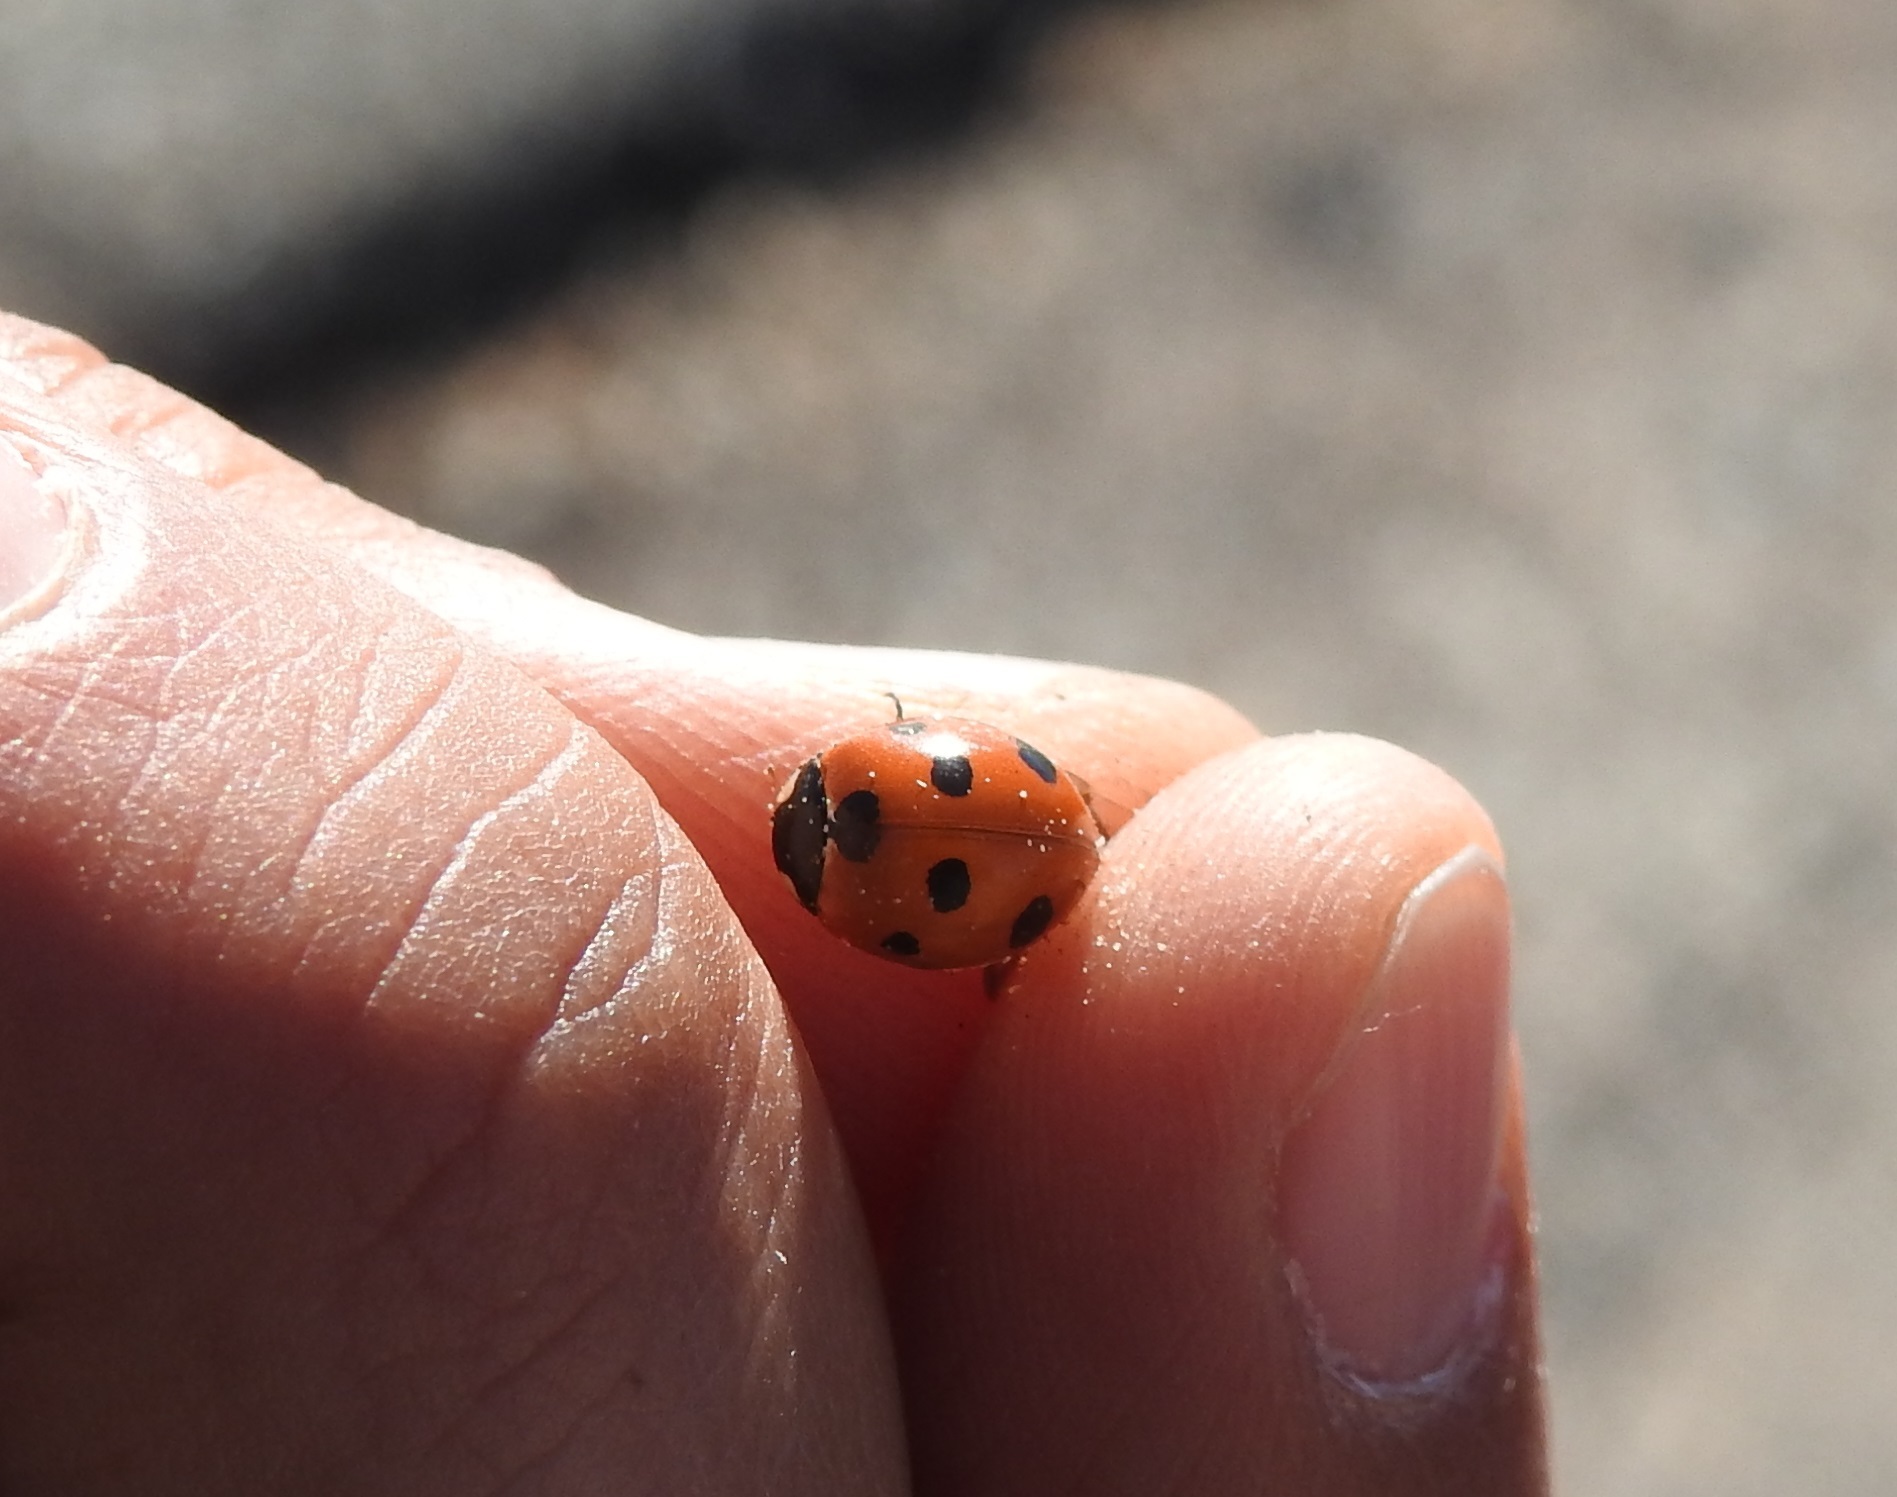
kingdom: Animalia
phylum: Arthropoda
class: Insecta
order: Coleoptera
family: Coccinellidae
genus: Coccinella
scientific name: Coccinella algerica
